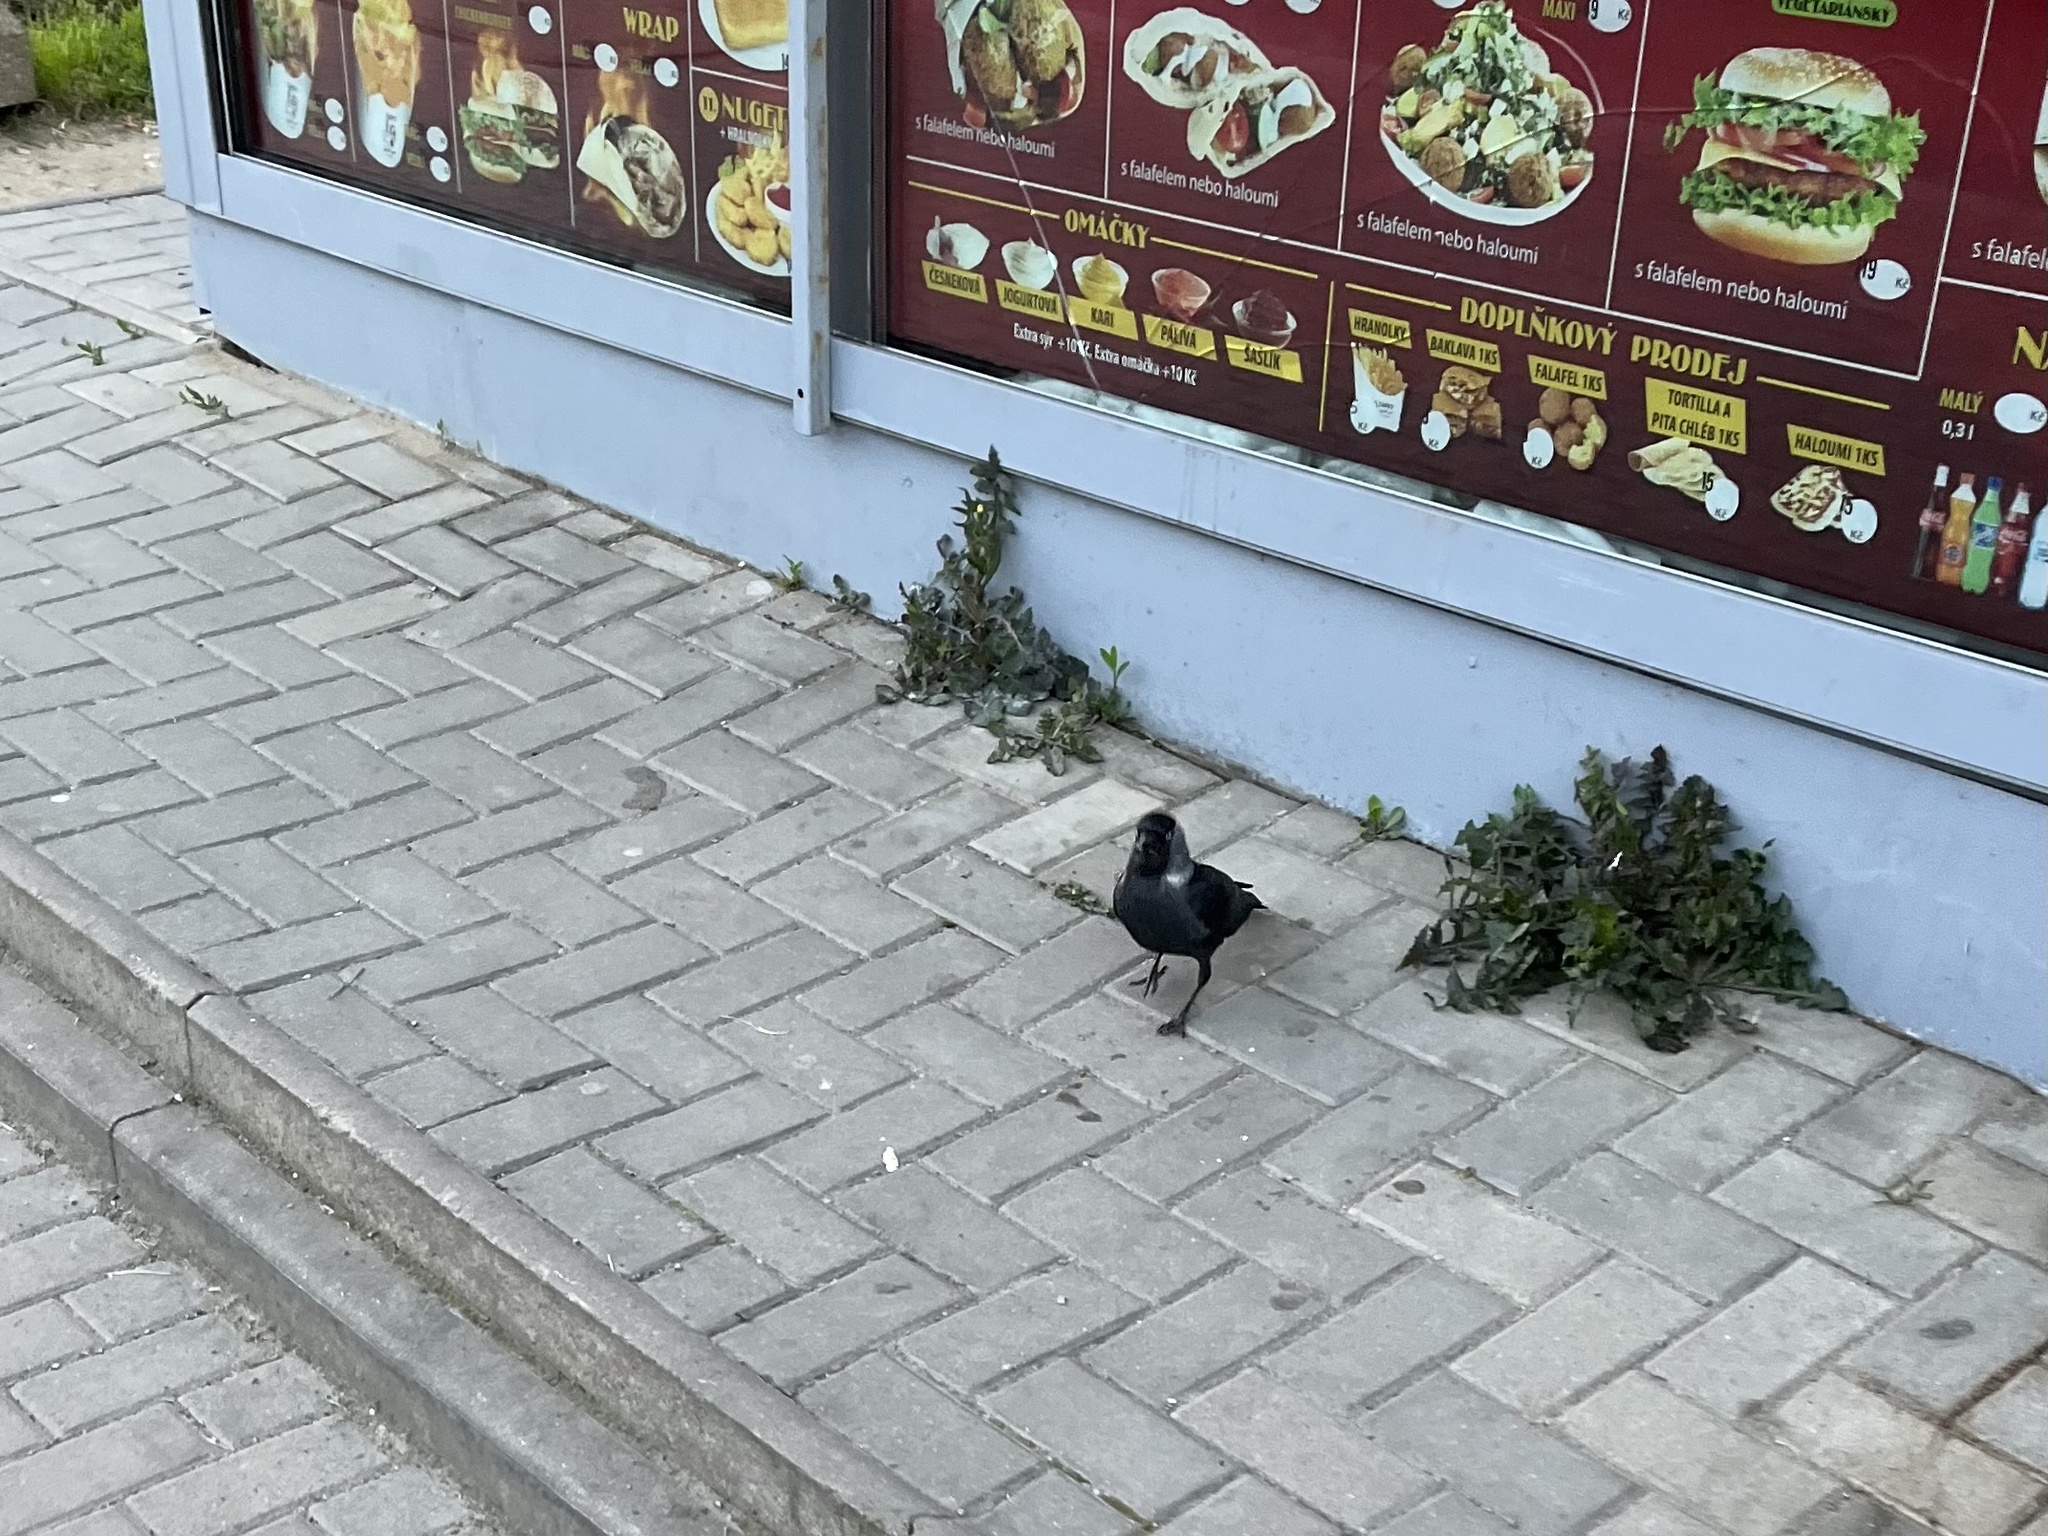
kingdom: Animalia
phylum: Chordata
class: Aves
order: Passeriformes
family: Corvidae
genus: Coloeus
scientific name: Coloeus monedula
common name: Western jackdaw
